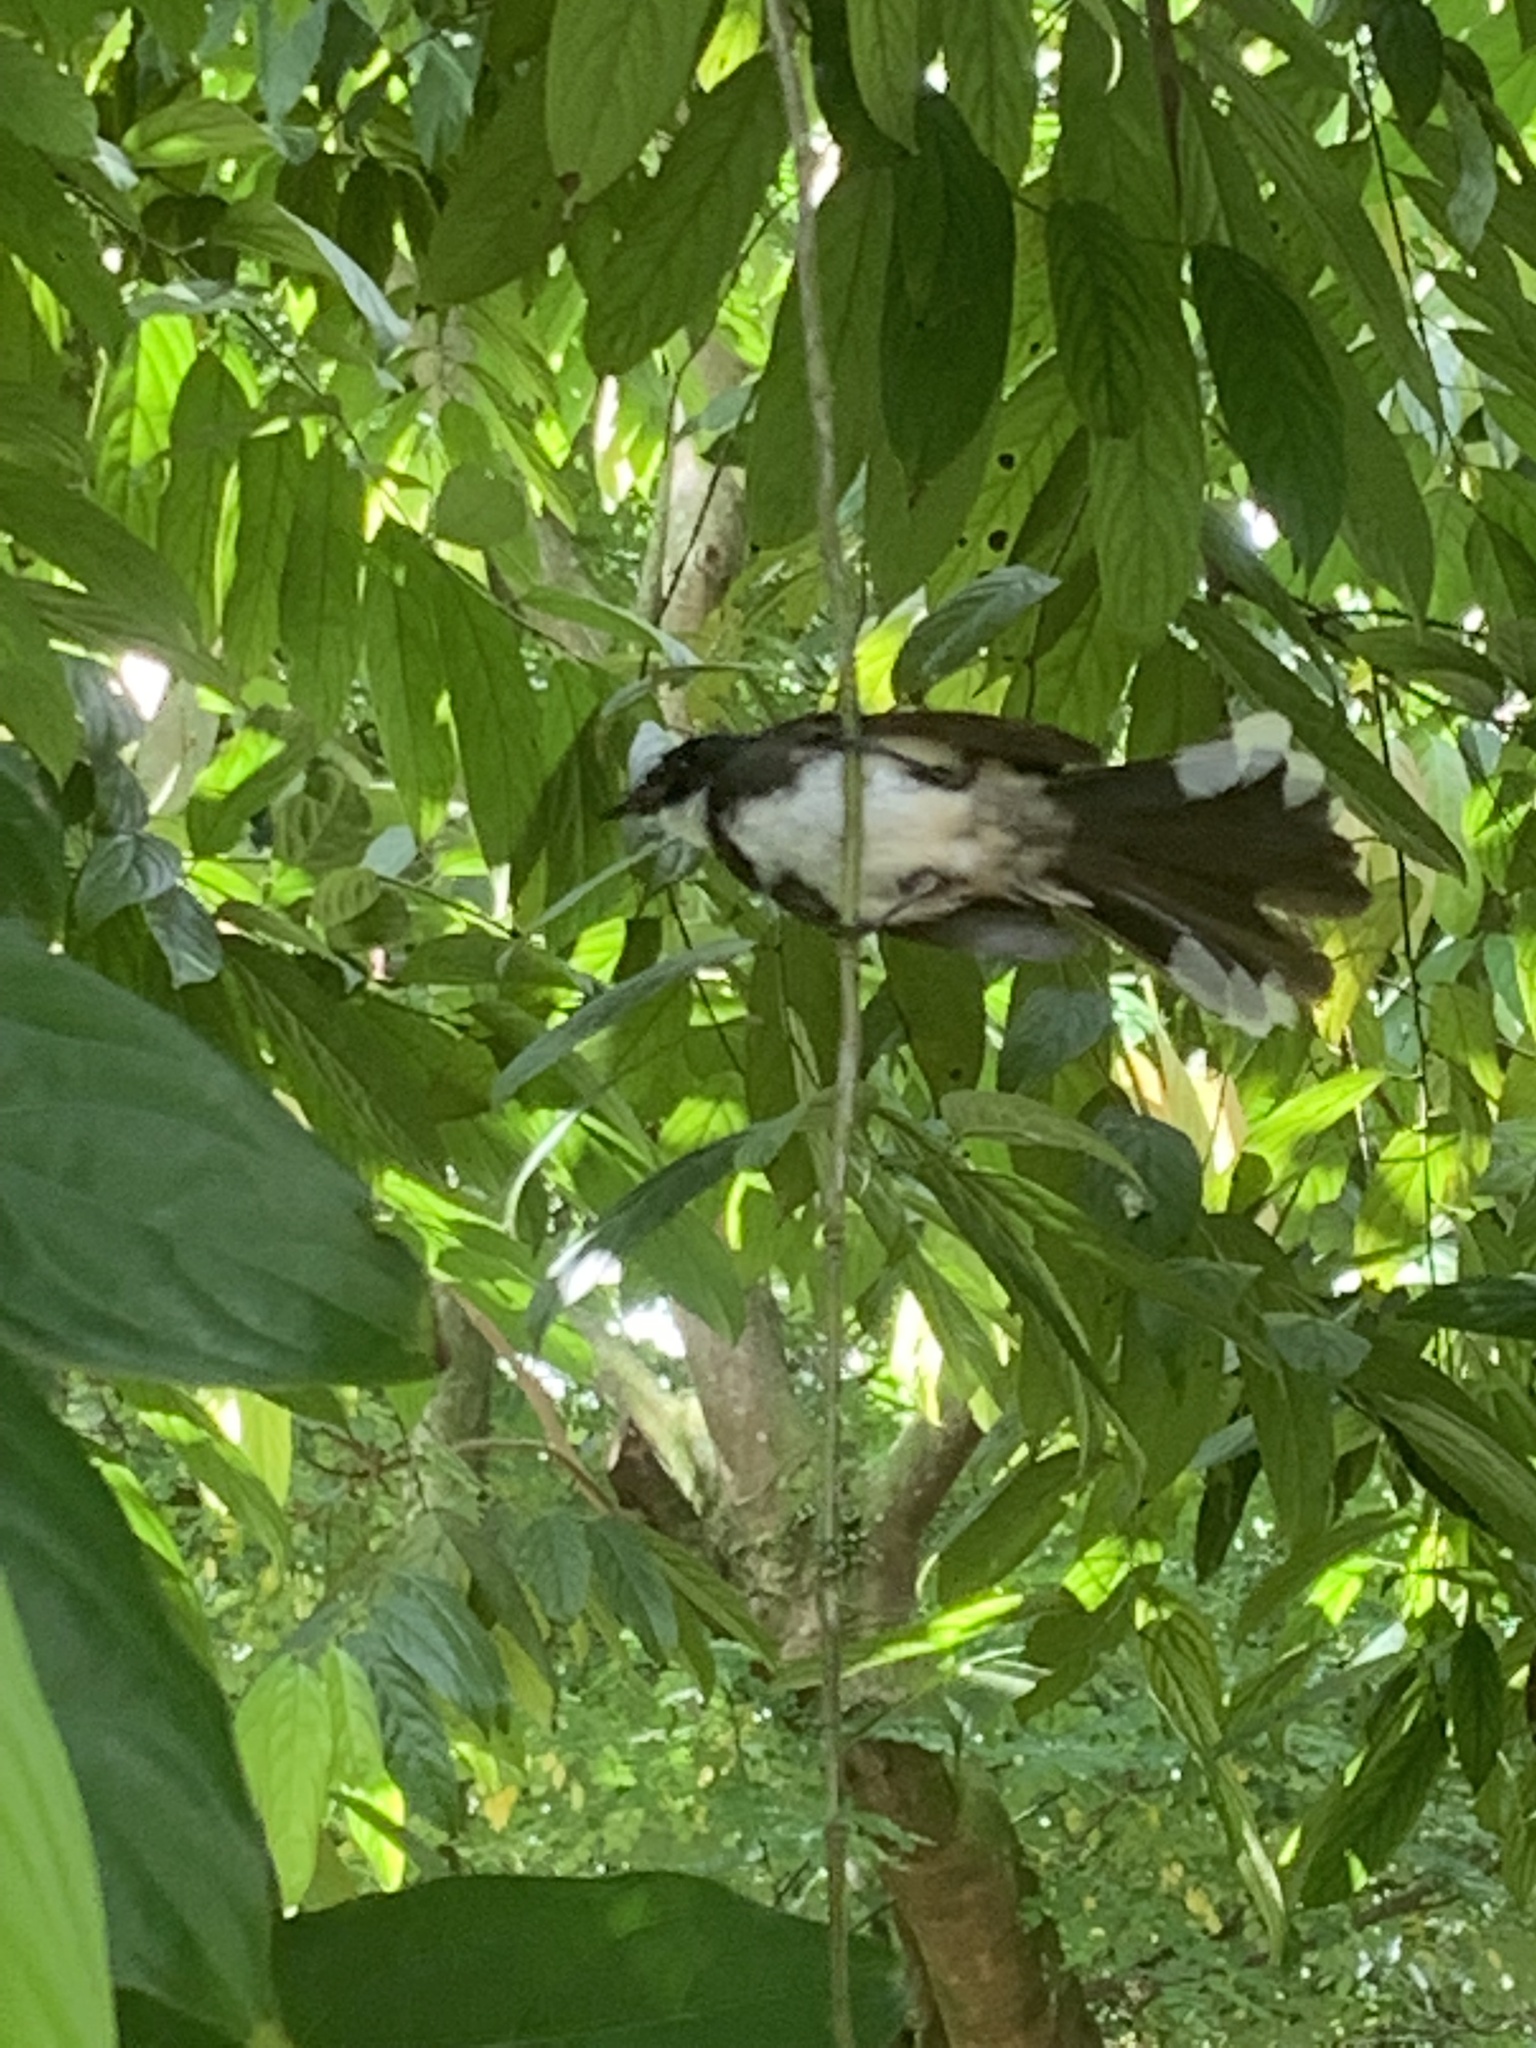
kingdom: Animalia
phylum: Chordata
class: Aves
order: Passeriformes
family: Rhipiduridae
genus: Rhipidura
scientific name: Rhipidura javanica
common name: Pied fantail
